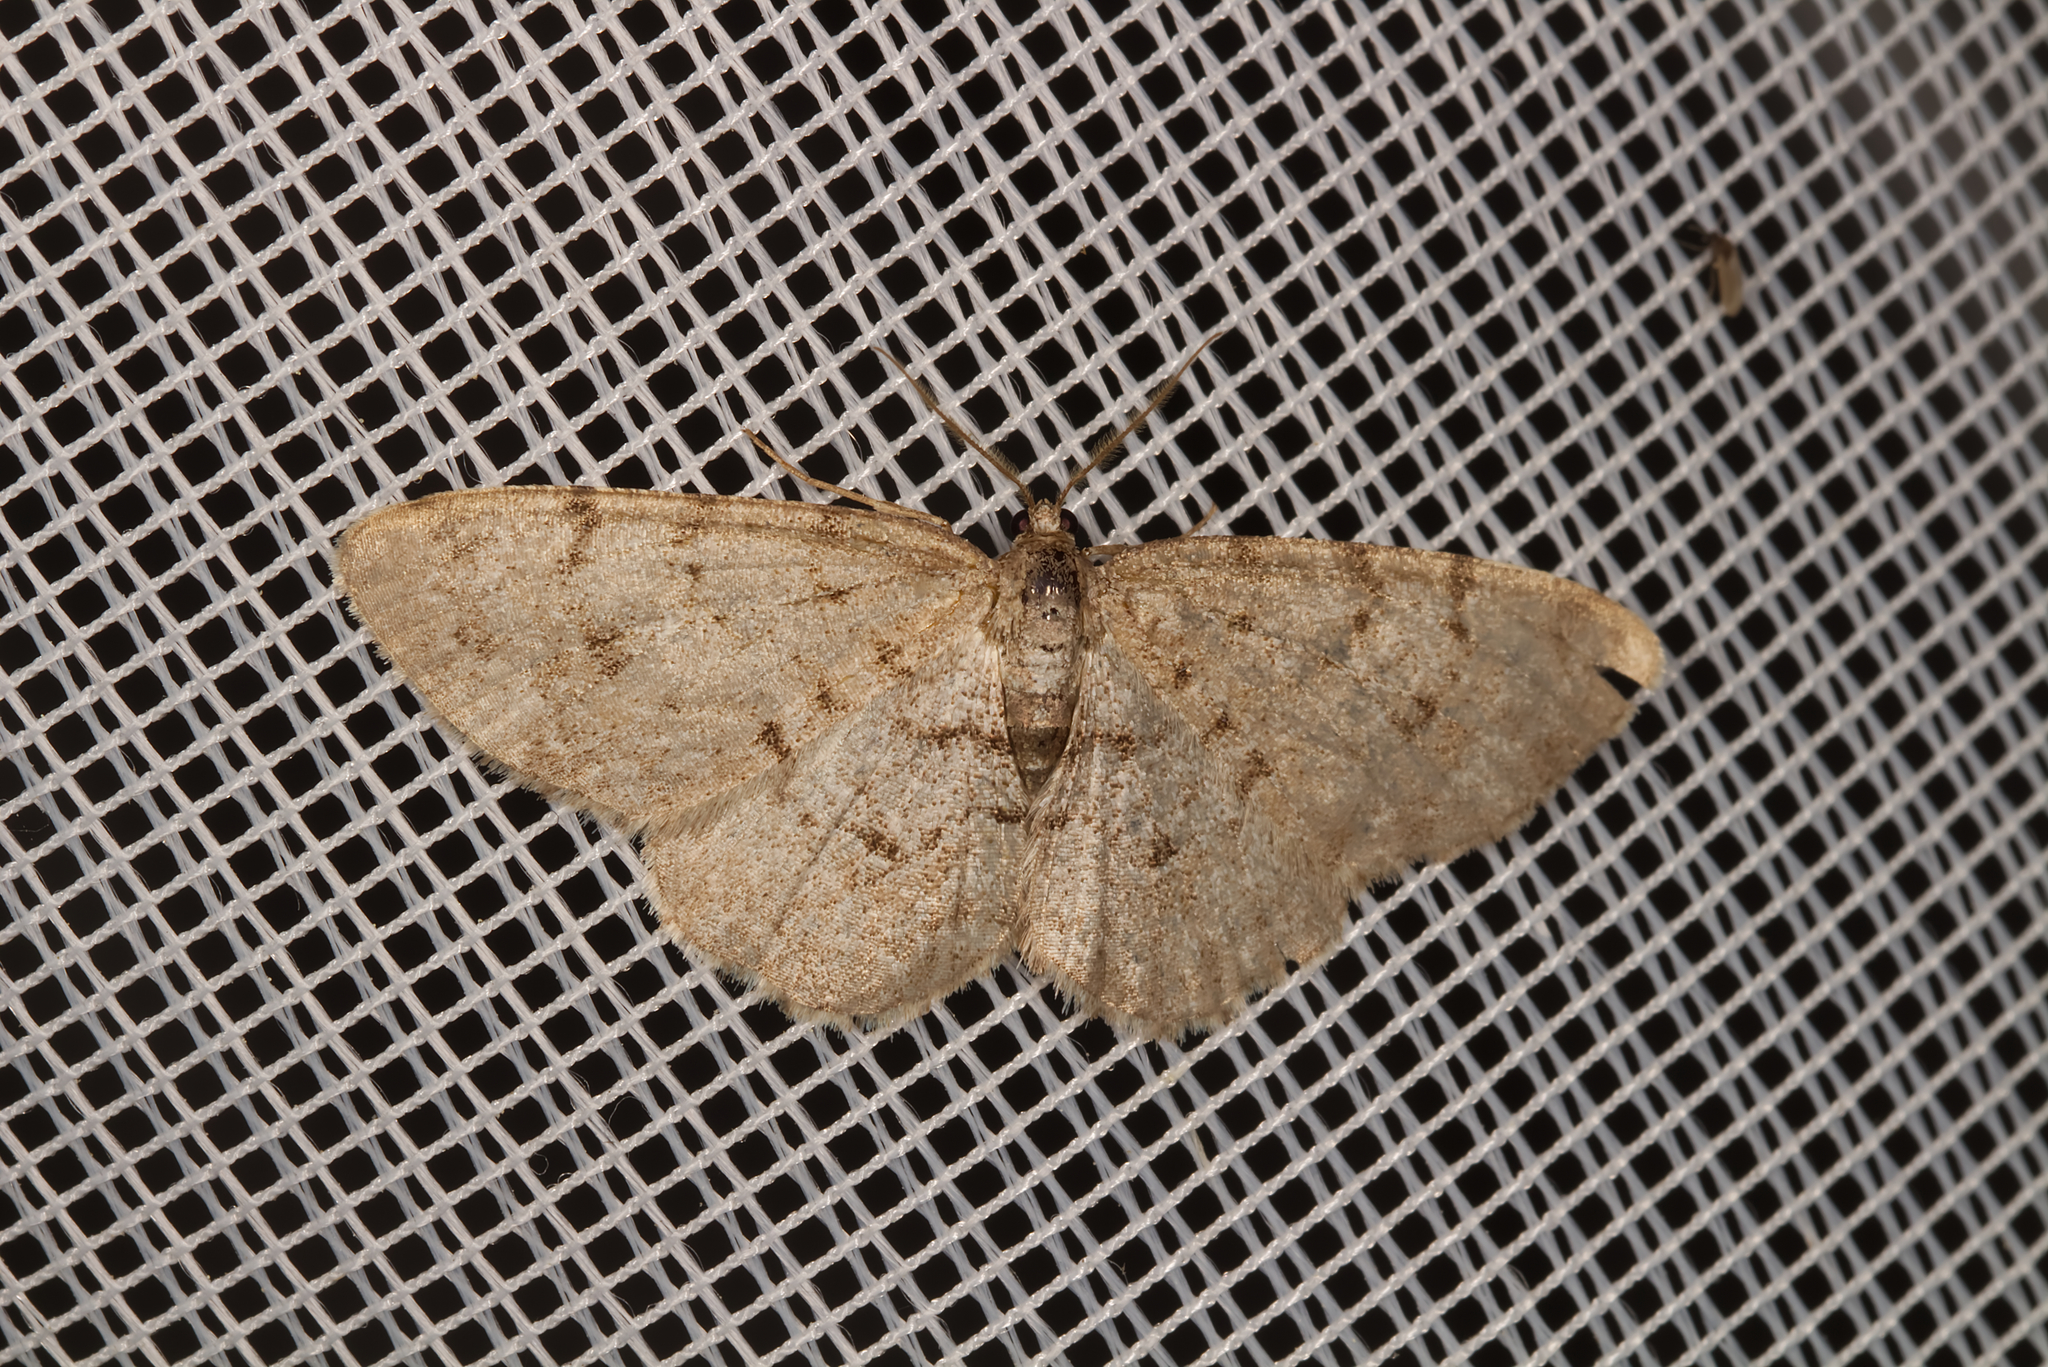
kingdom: Animalia
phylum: Arthropoda
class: Insecta
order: Lepidoptera
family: Geometridae
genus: Aethalura
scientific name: Aethalura punctulata
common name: Grey birch
